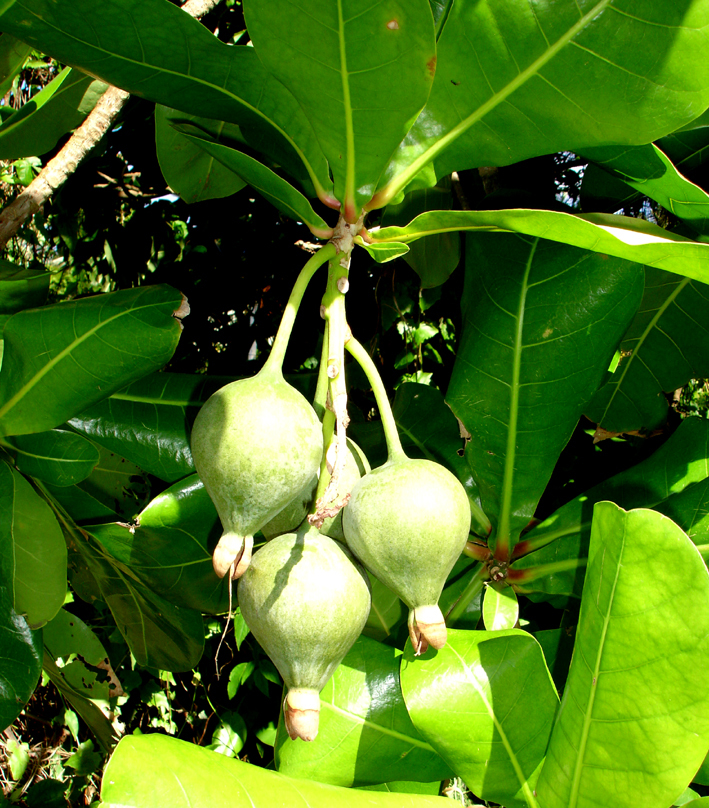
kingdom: Plantae
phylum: Tracheophyta
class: Magnoliopsida
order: Ericales
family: Lecythidaceae
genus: Barringtonia
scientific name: Barringtonia asiatica
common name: Mango-pine
